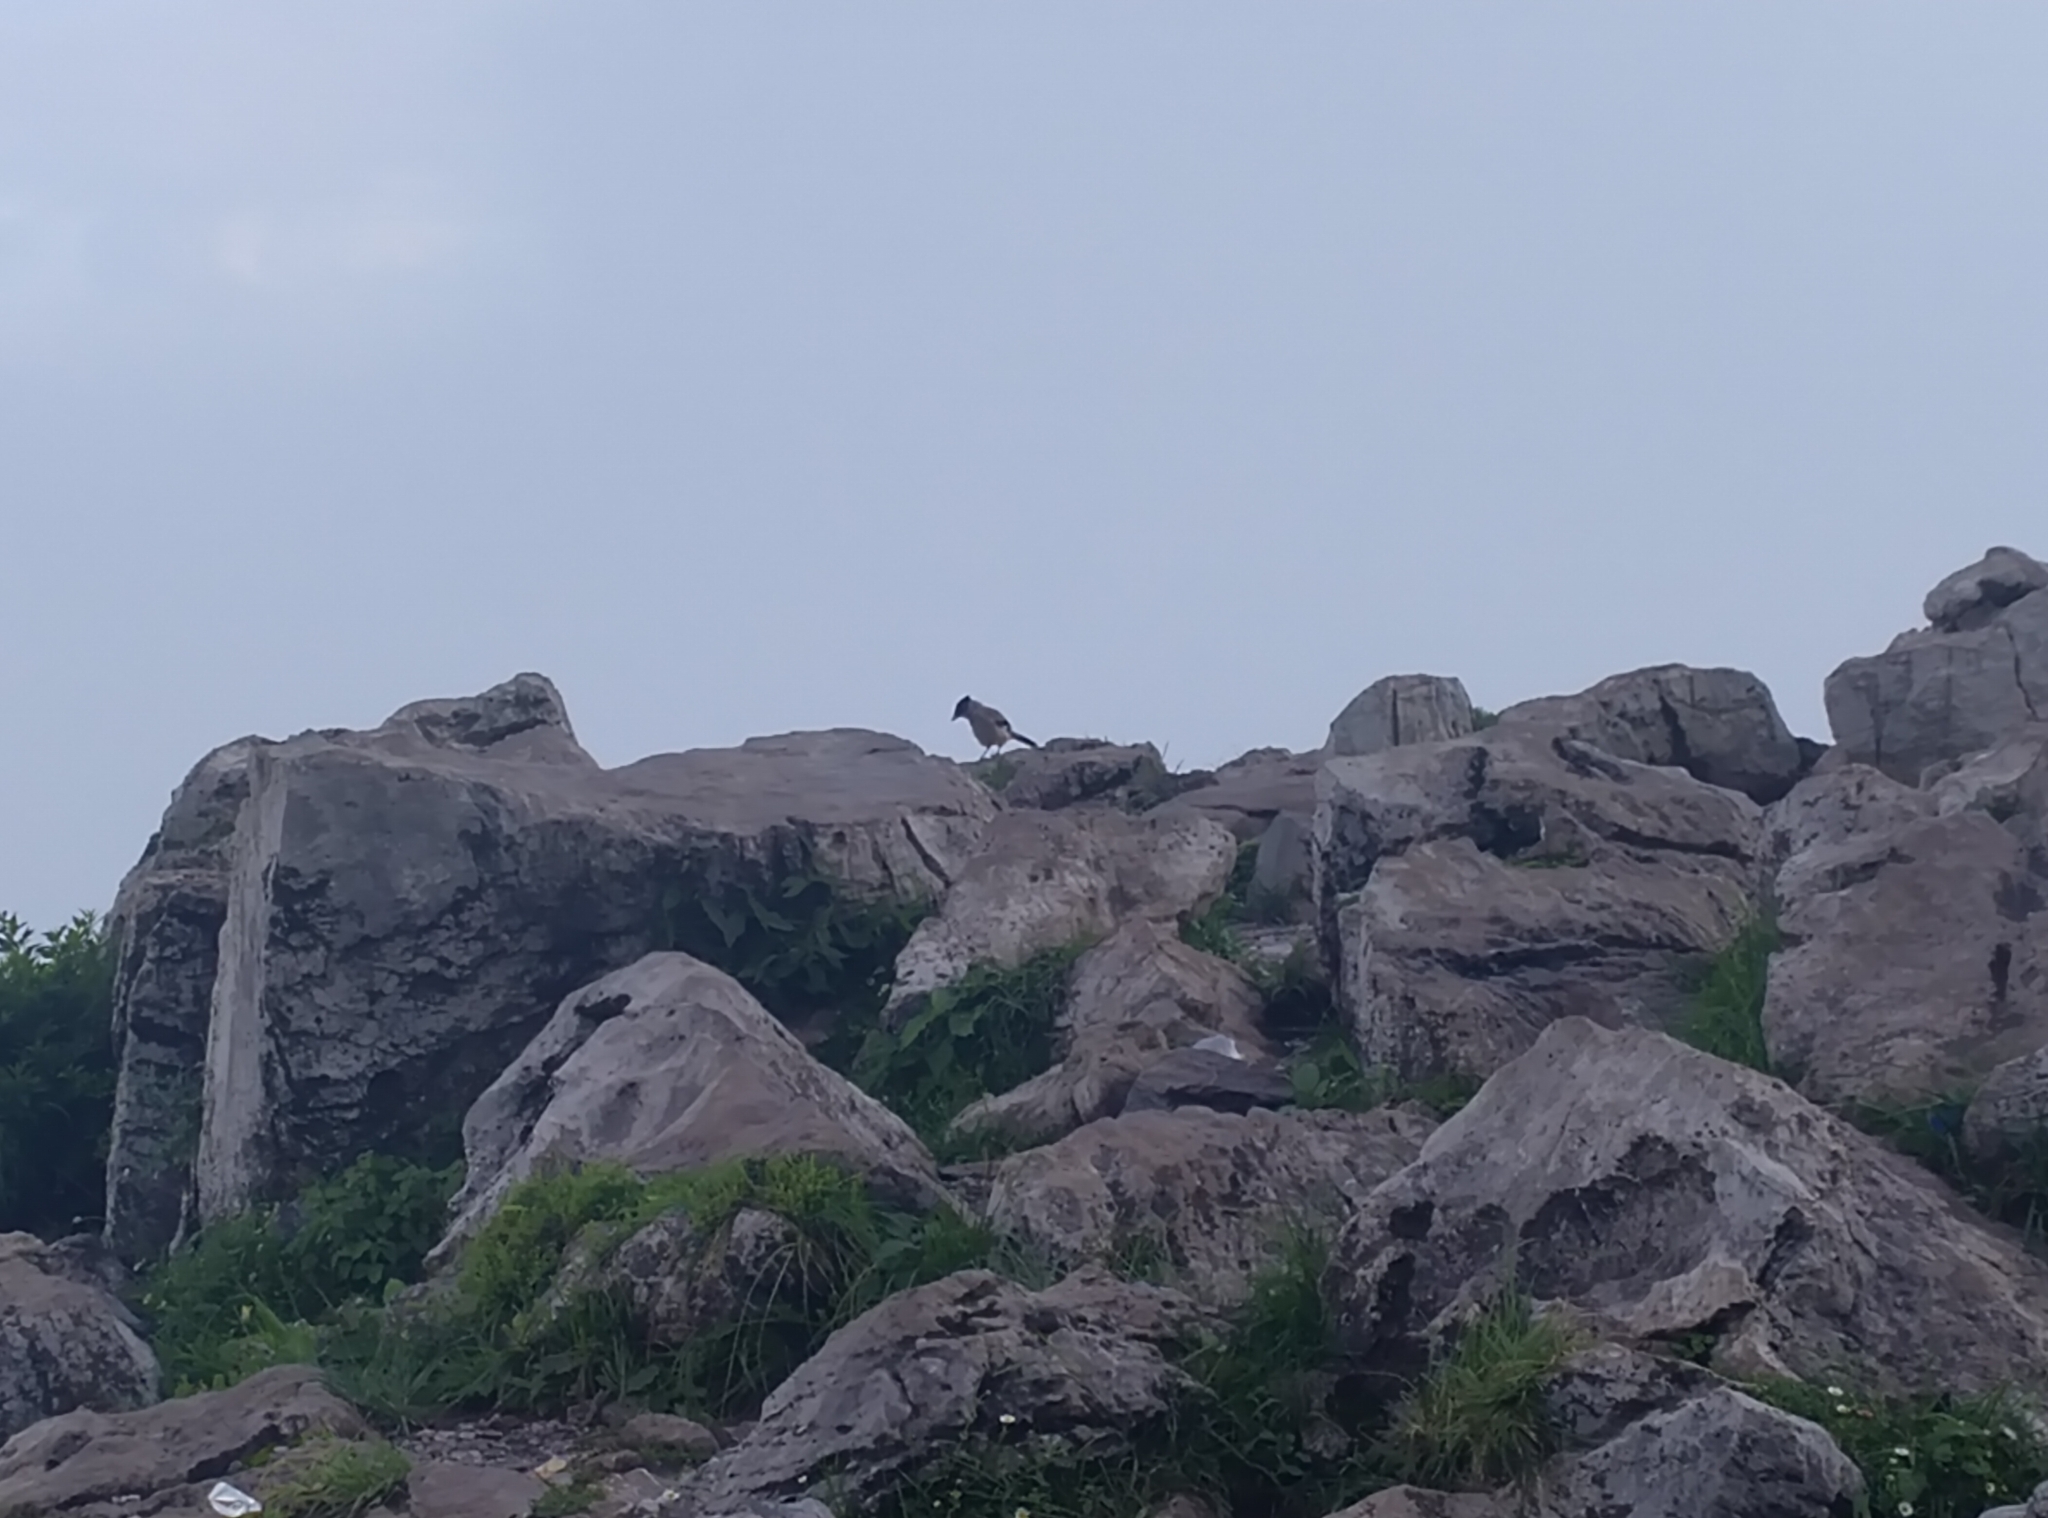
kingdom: Animalia
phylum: Chordata
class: Aves
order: Passeriformes
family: Corvidae
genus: Garrulus
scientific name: Garrulus lanceolatus
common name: Black-headed jay
